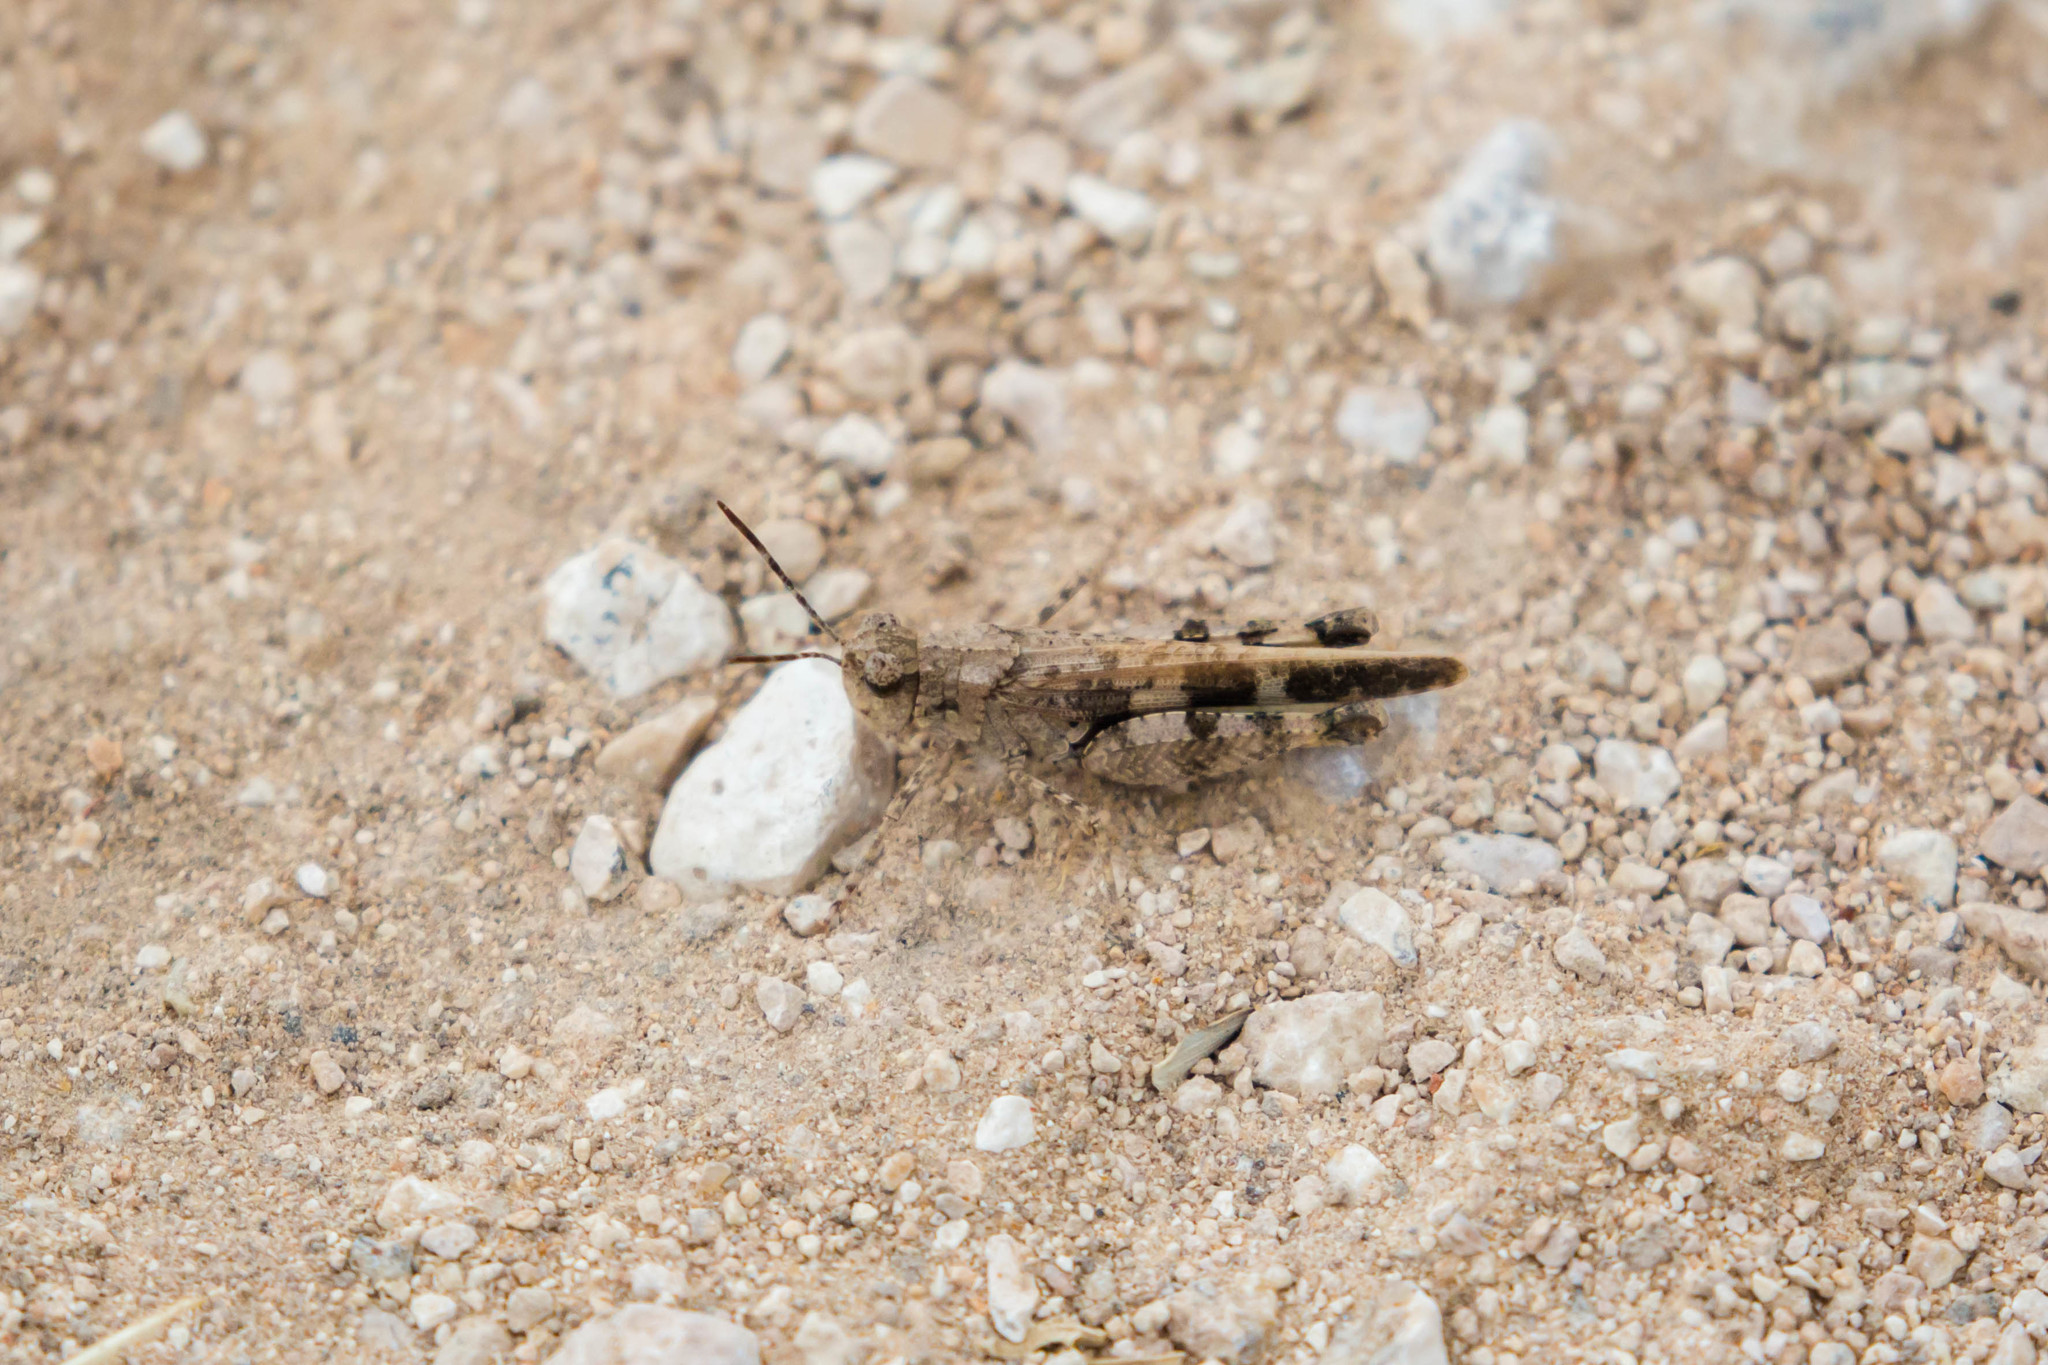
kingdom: Animalia
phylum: Arthropoda
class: Insecta
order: Orthoptera
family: Acrididae
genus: Nebulatettix
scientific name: Nebulatettix subgracilis
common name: Southwestern dusky grasshopper
